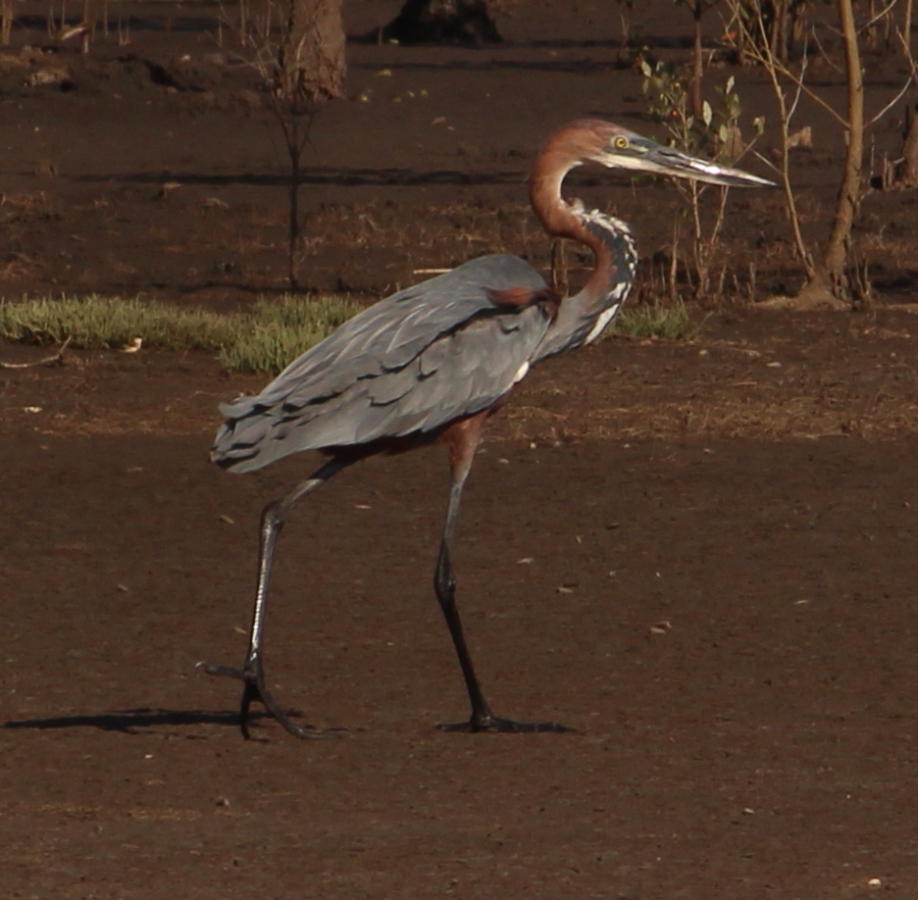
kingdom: Animalia
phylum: Chordata
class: Aves
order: Pelecaniformes
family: Ardeidae
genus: Ardea
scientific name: Ardea goliath
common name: Goliath heron
